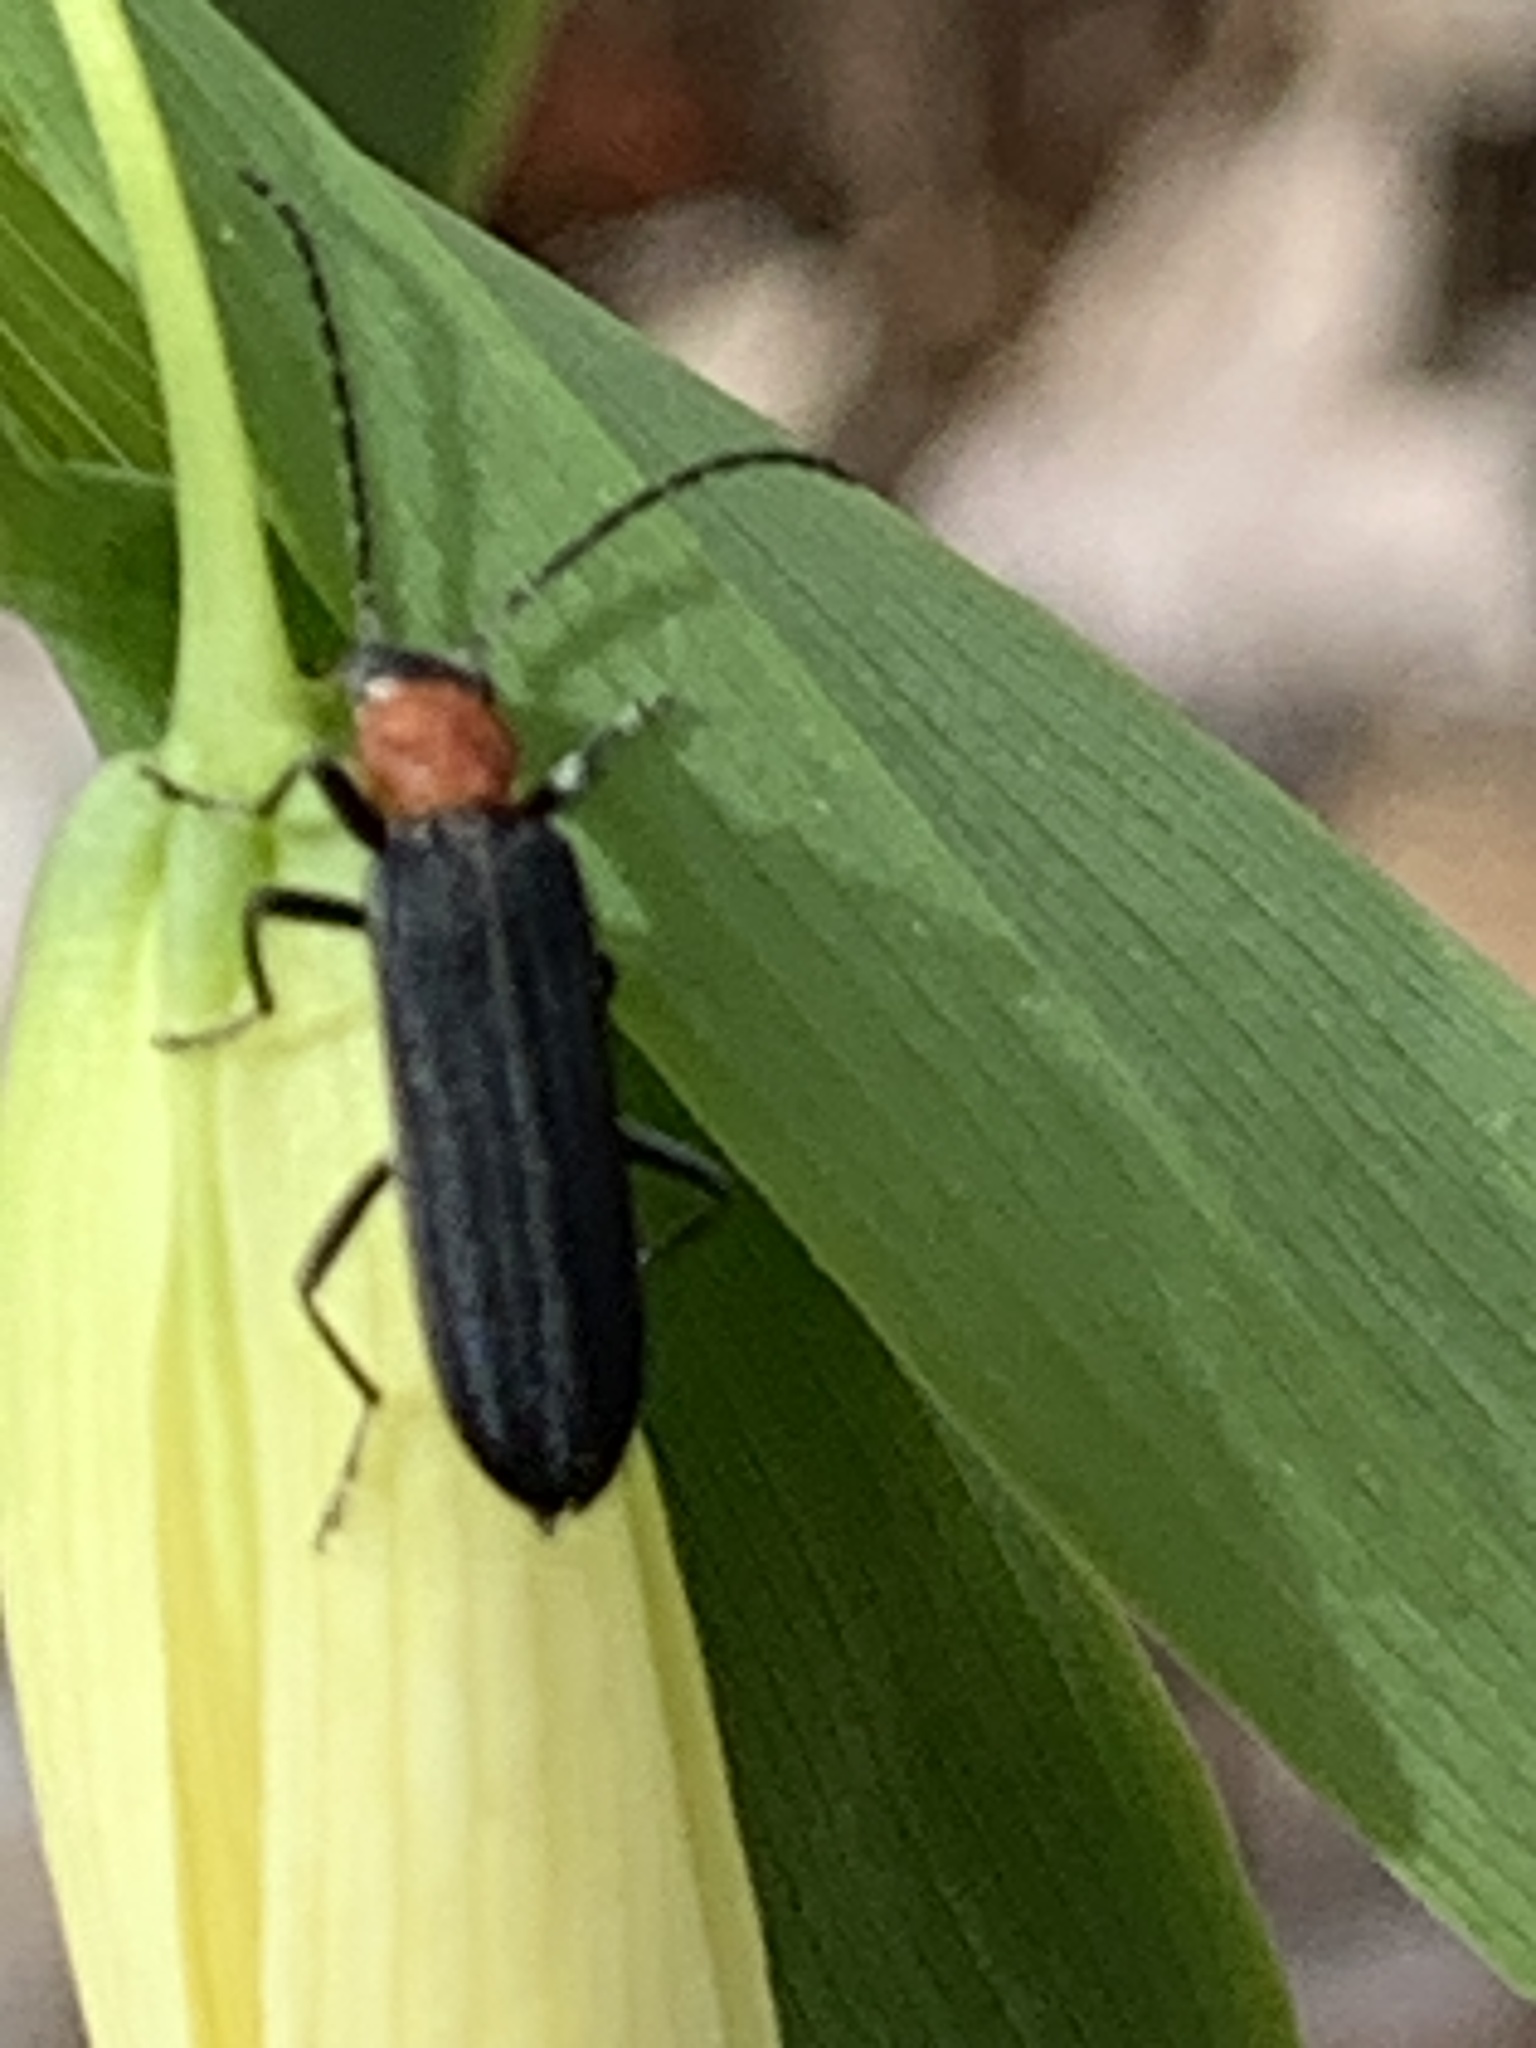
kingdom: Animalia
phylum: Arthropoda
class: Insecta
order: Coleoptera
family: Oedemeridae
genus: Ischnomera
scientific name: Ischnomera
